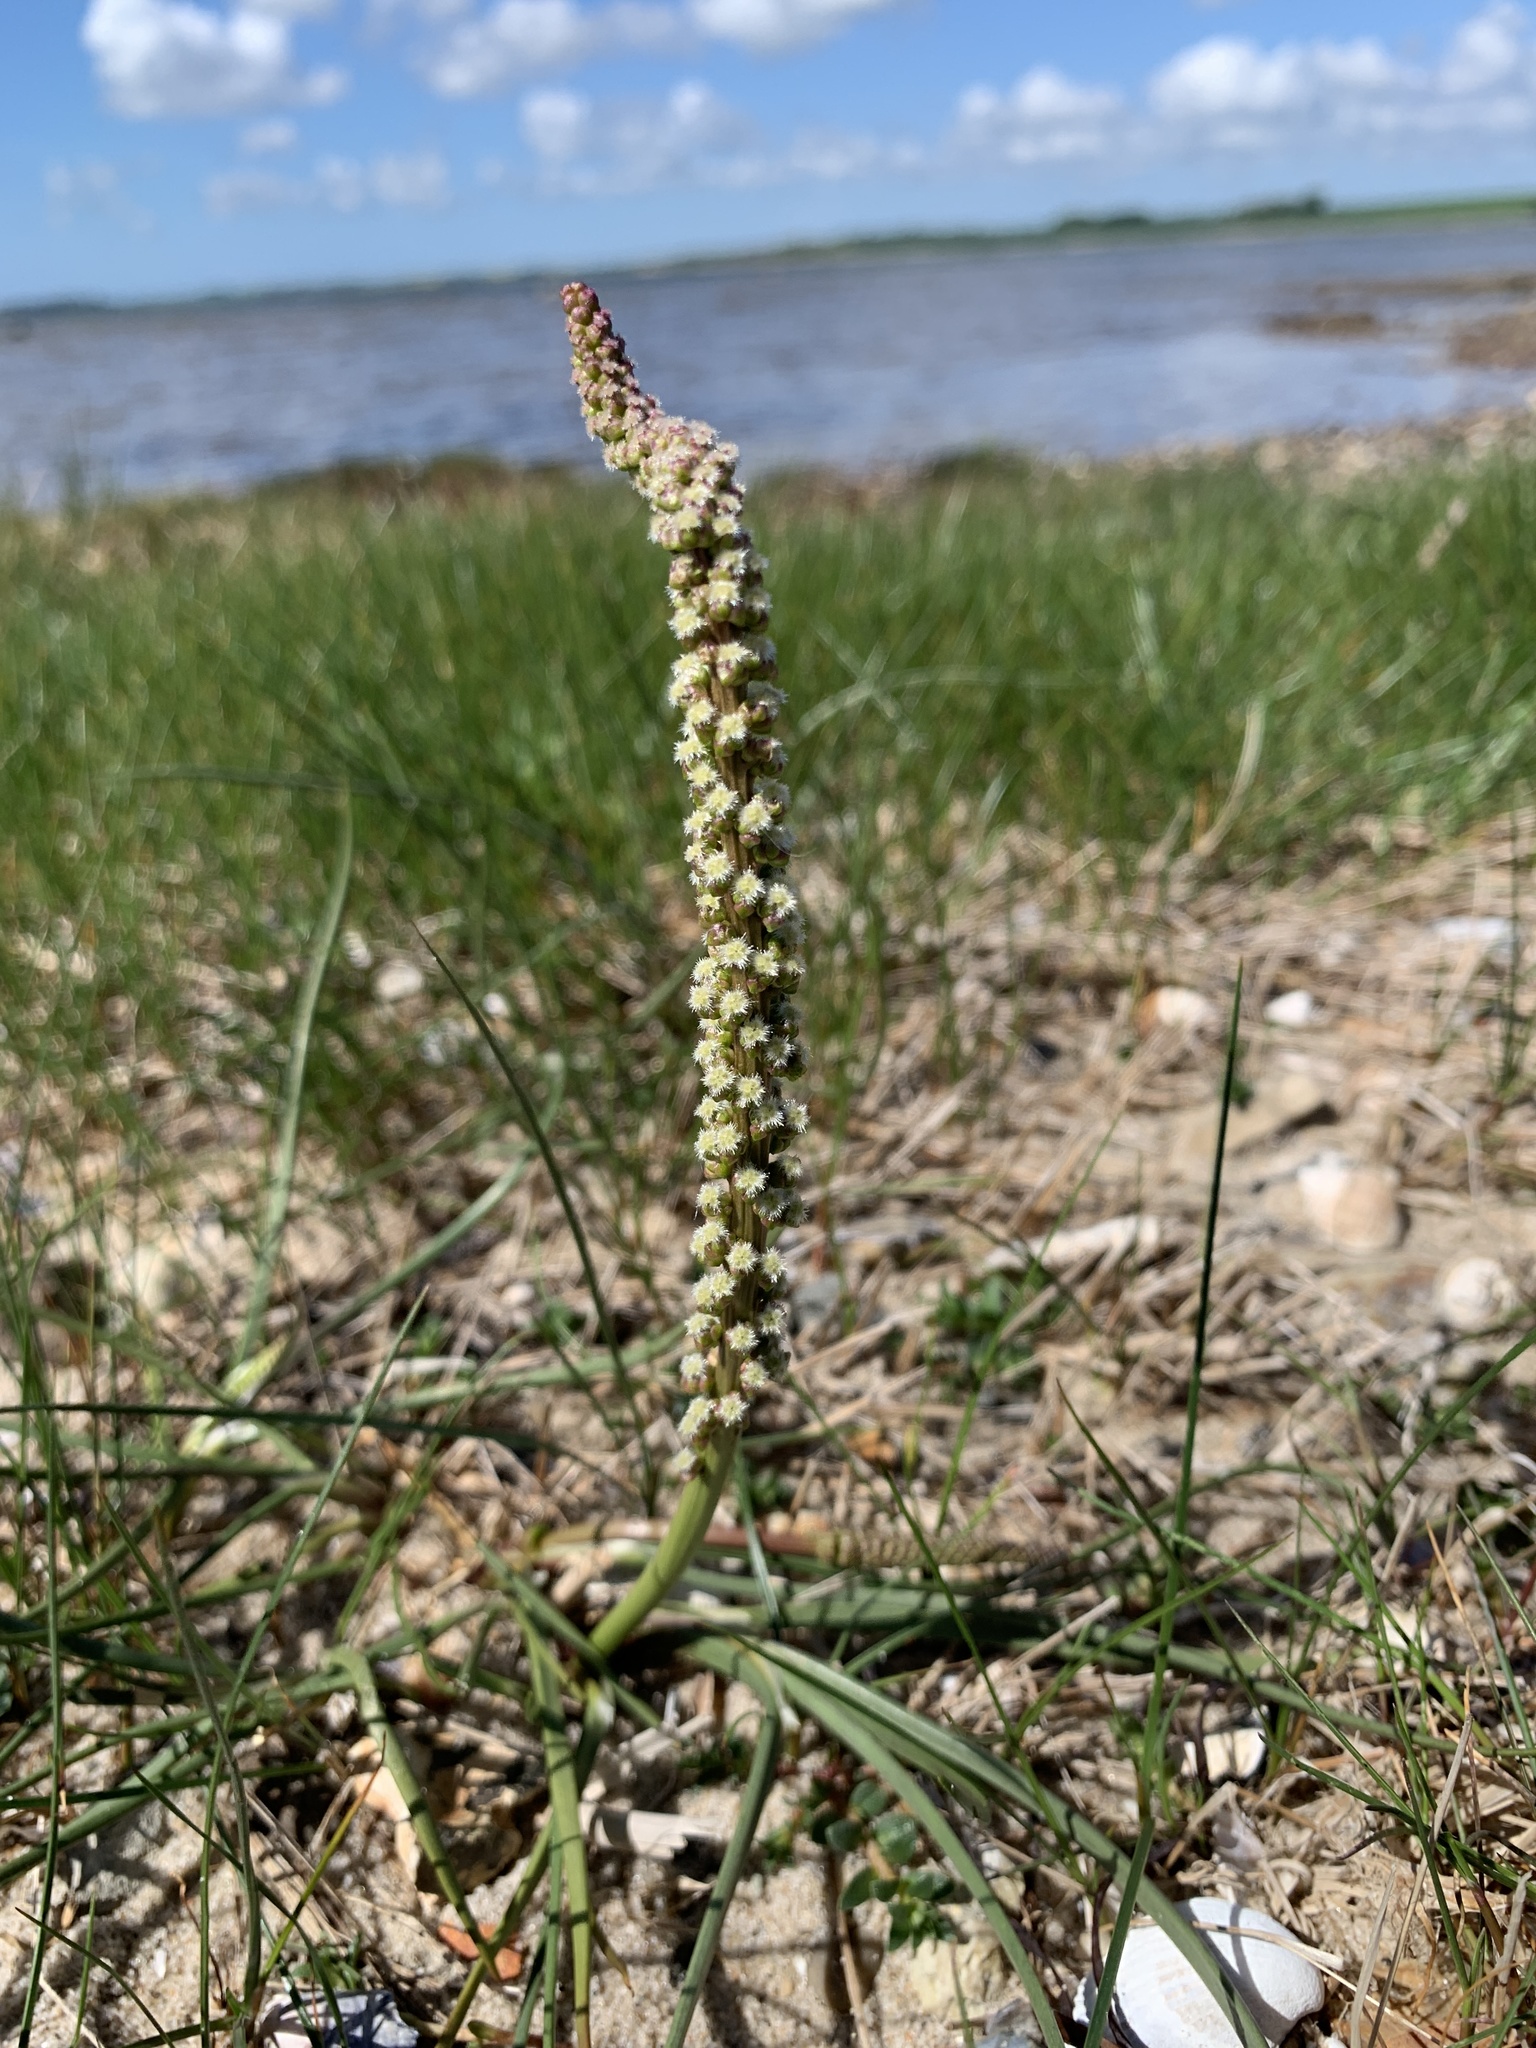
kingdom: Plantae
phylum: Tracheophyta
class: Liliopsida
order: Alismatales
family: Juncaginaceae
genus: Triglochin
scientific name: Triglochin maritima
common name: Sea arrowgrass
